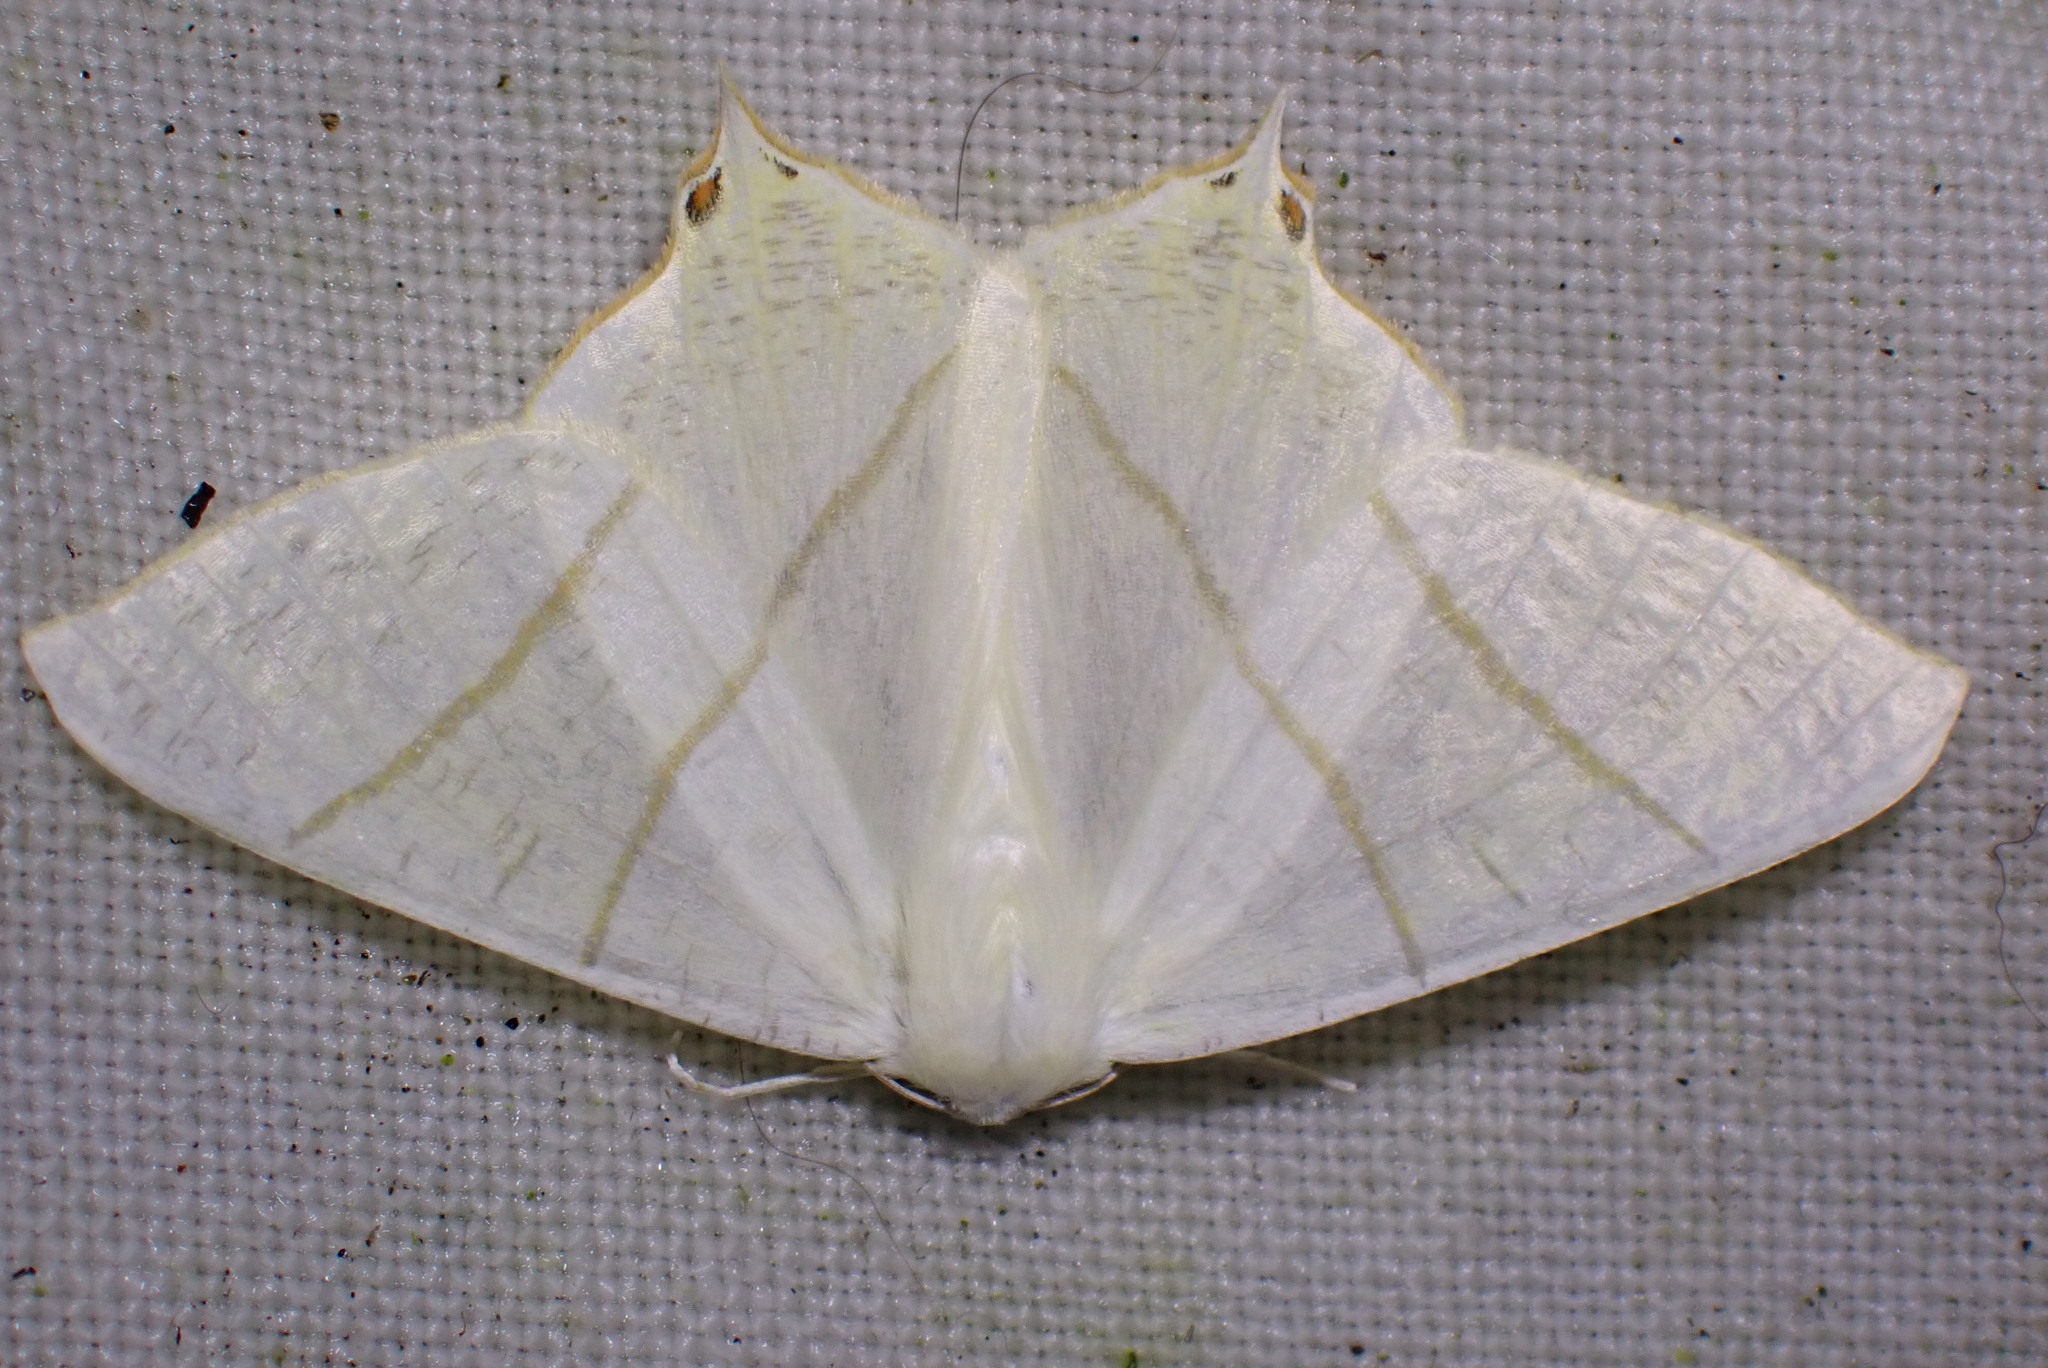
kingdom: Animalia
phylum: Arthropoda
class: Insecta
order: Lepidoptera
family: Geometridae
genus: Ourapteryx
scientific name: Ourapteryx sambucaria
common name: Swallow-tailed moth
